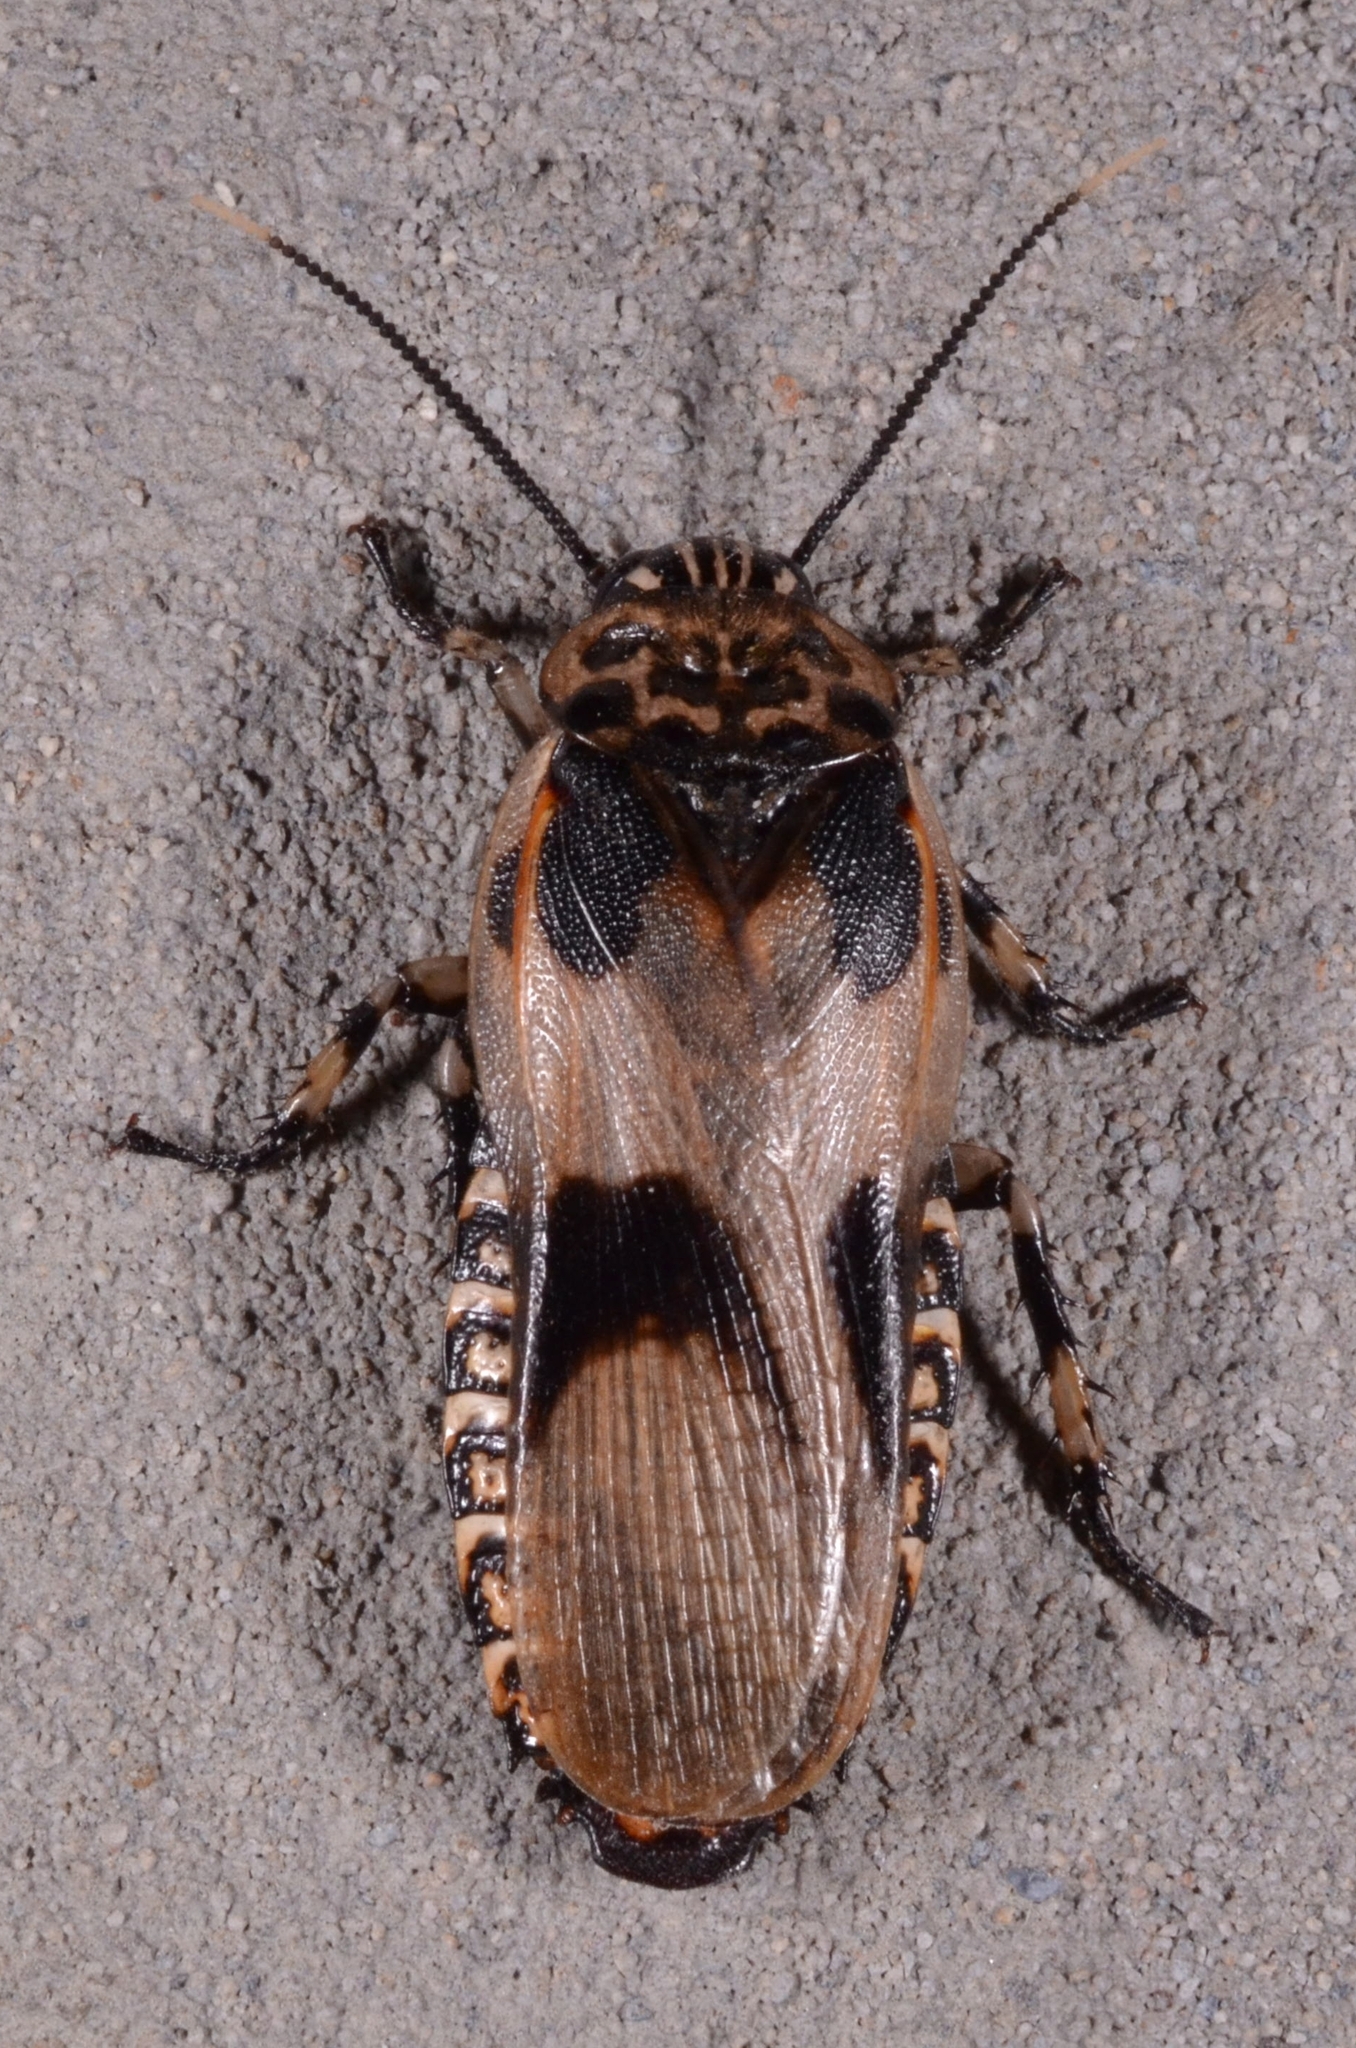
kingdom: Animalia
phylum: Arthropoda
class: Insecta
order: Blattodea
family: Blaberidae
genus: Caeparia
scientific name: Caeparia donskoffi
